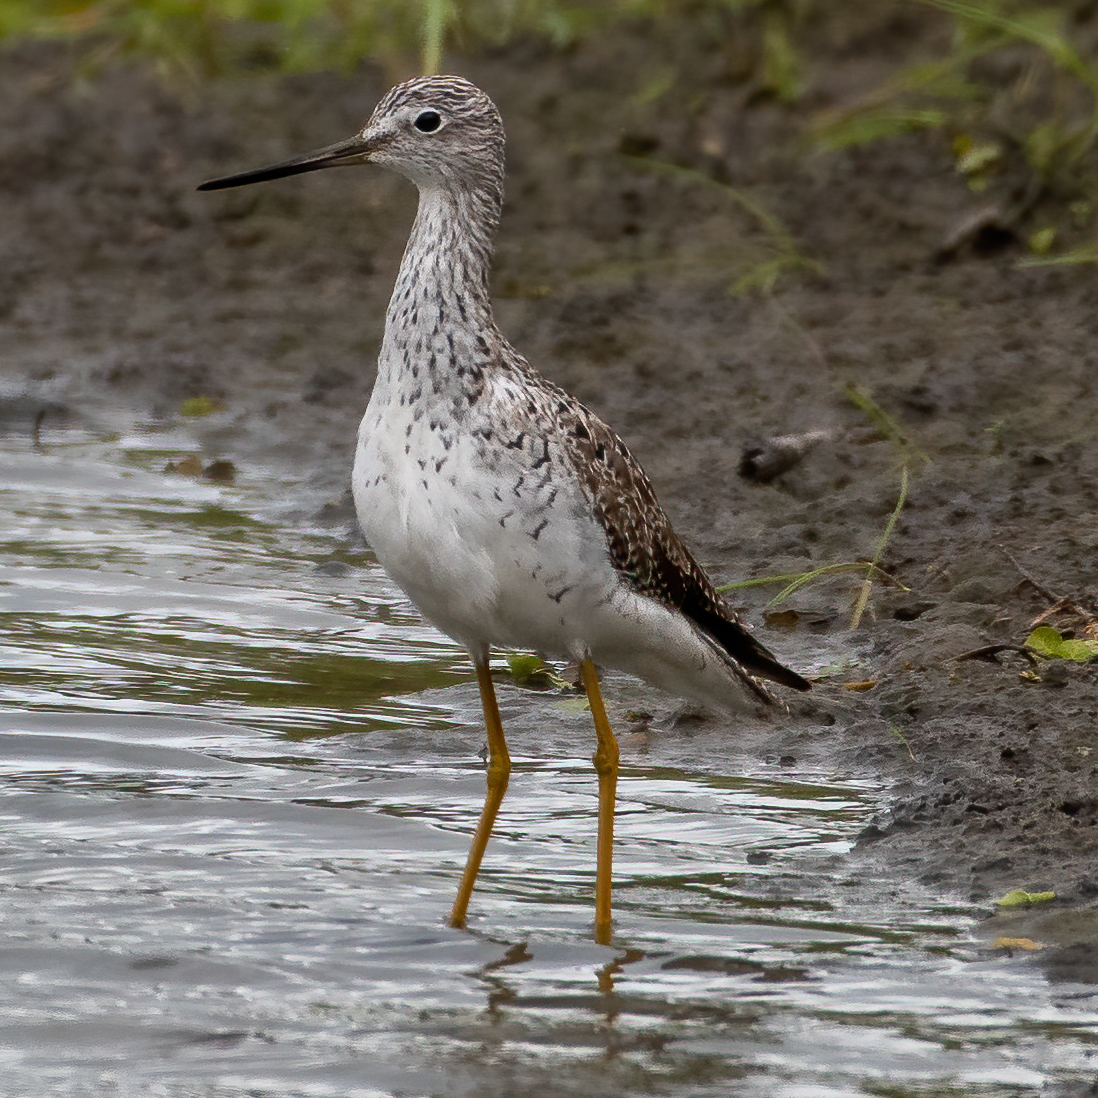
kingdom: Animalia
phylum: Chordata
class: Aves
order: Charadriiformes
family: Scolopacidae
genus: Tringa
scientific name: Tringa melanoleuca
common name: Greater yellowlegs
